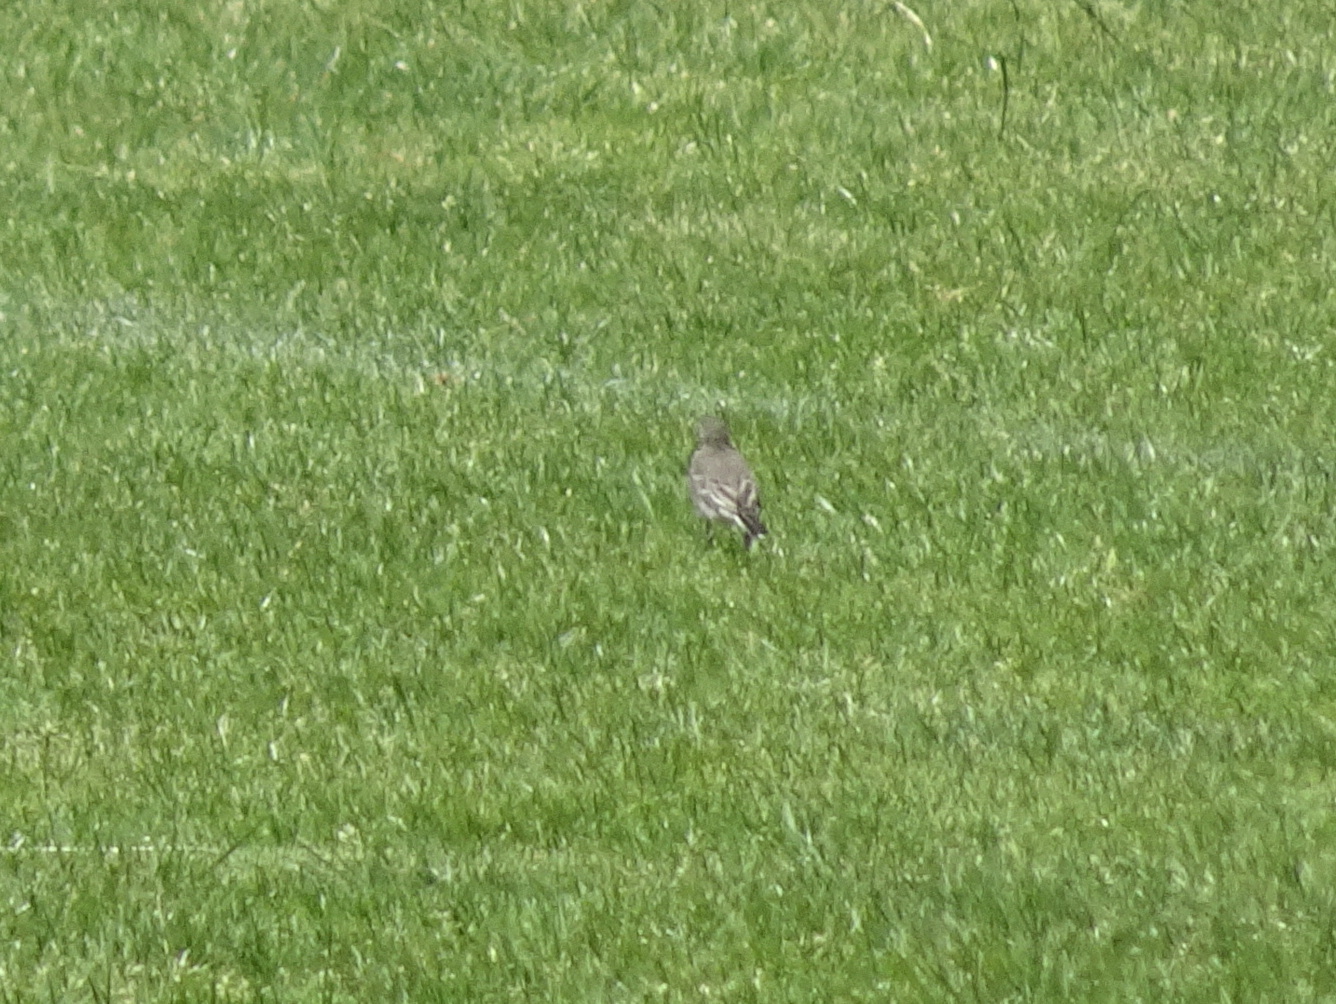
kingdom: Animalia
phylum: Chordata
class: Aves
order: Passeriformes
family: Motacillidae
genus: Motacilla
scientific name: Motacilla alba
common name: White wagtail
